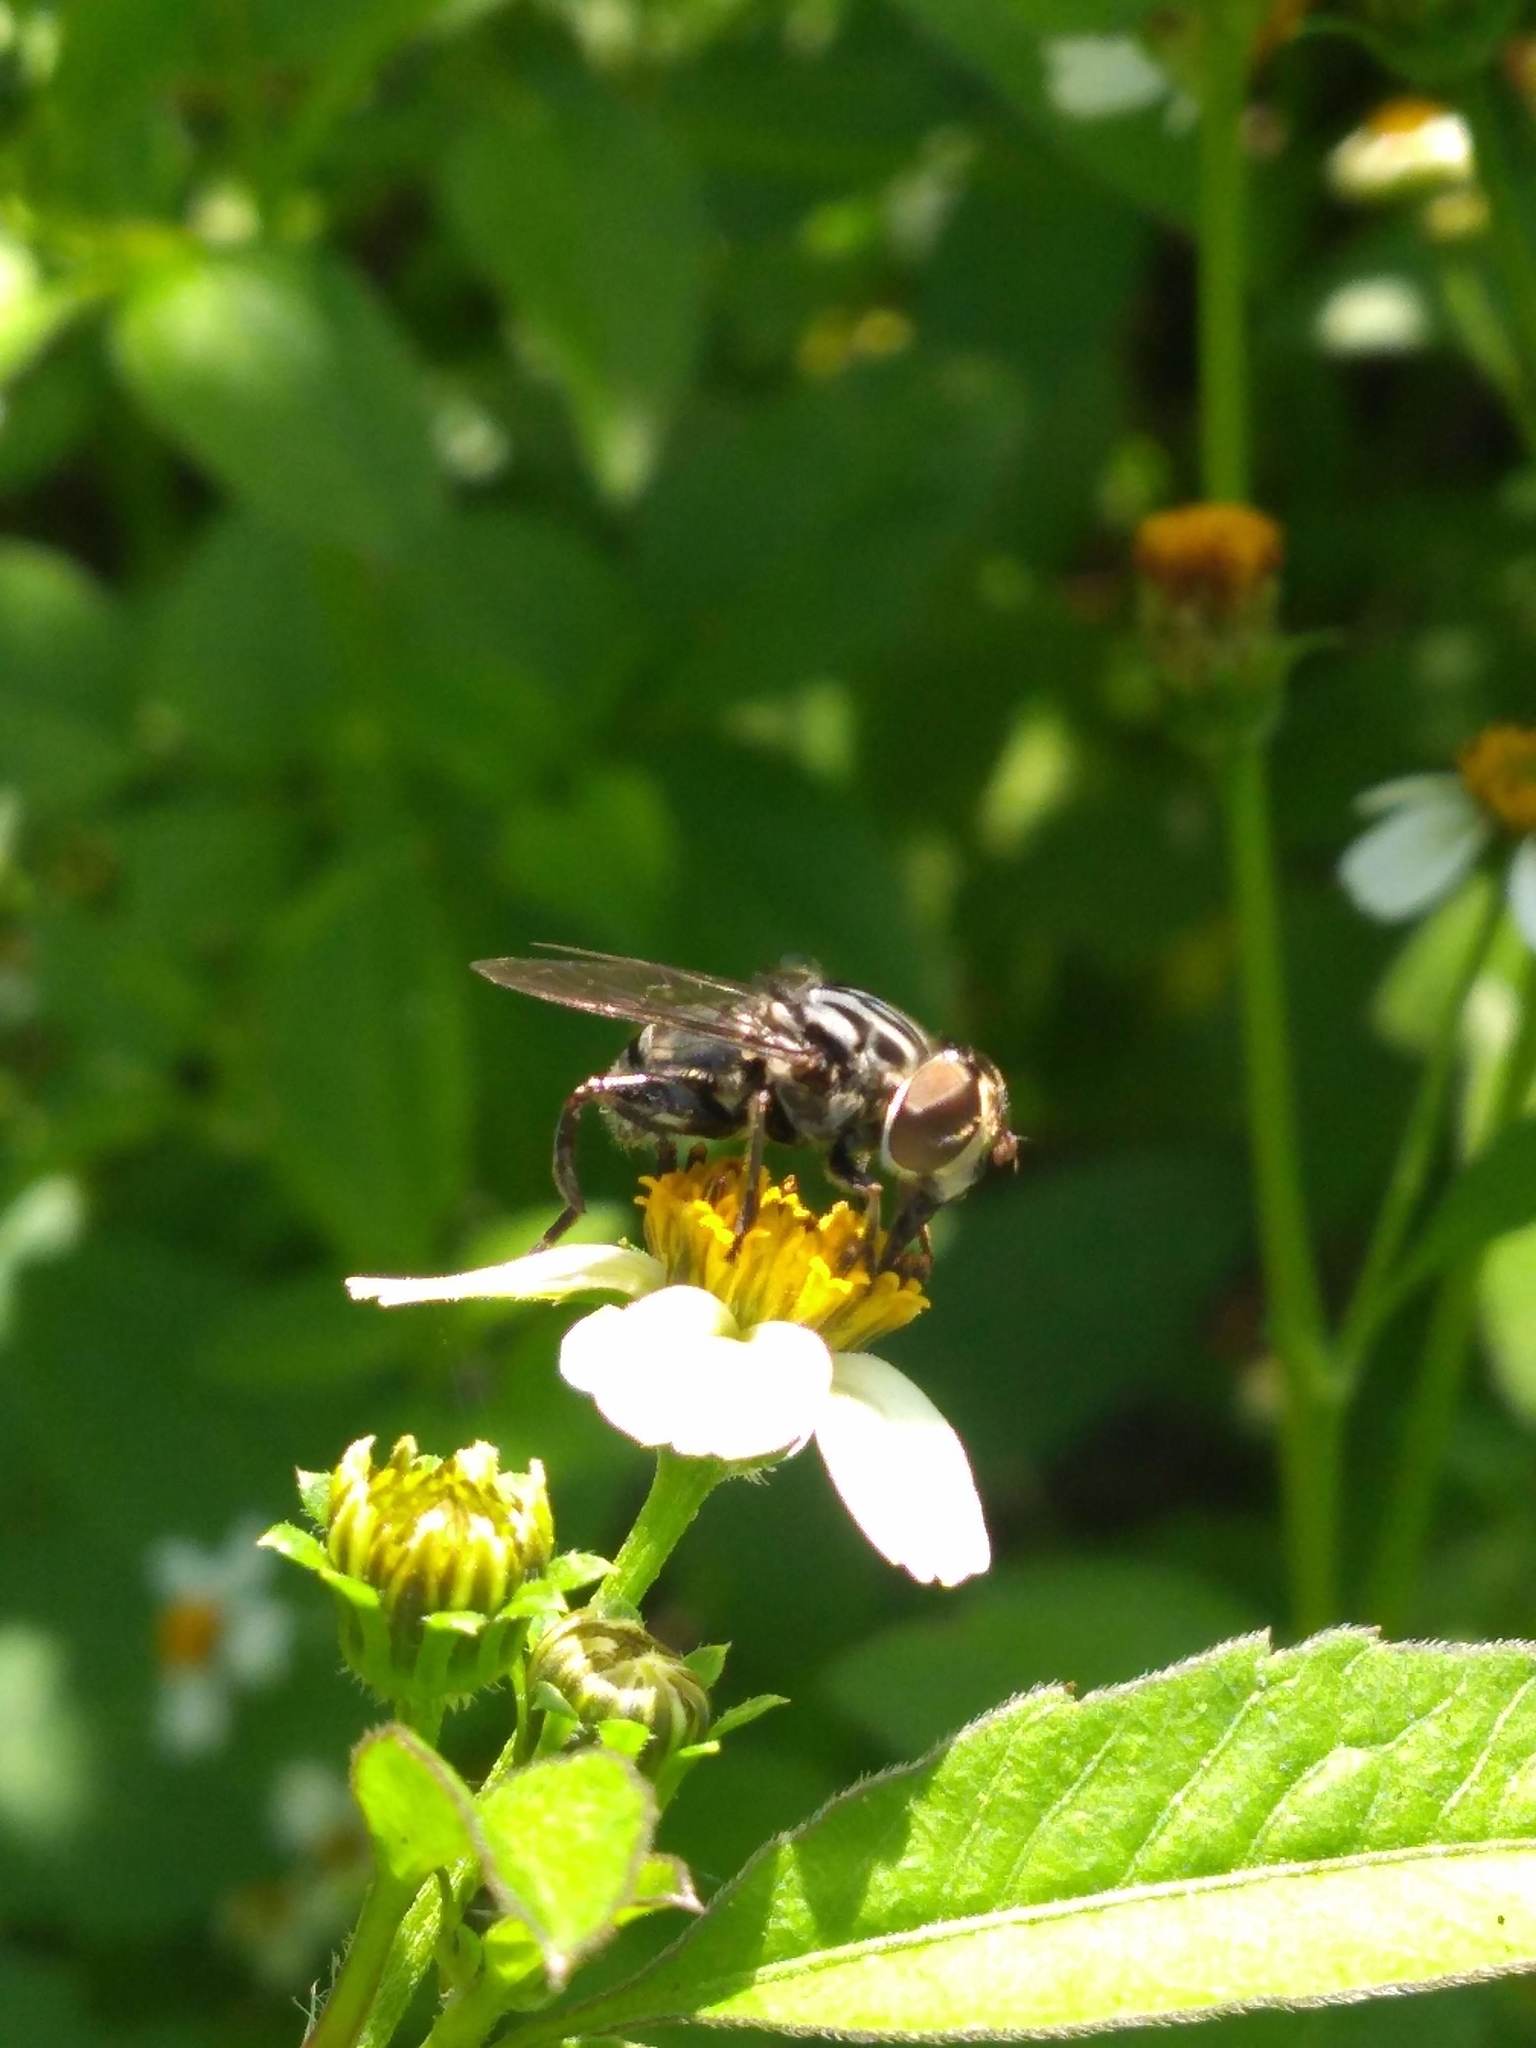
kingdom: Animalia
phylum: Arthropoda
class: Insecta
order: Diptera
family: Syrphidae
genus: Palpada
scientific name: Palpada furcata
